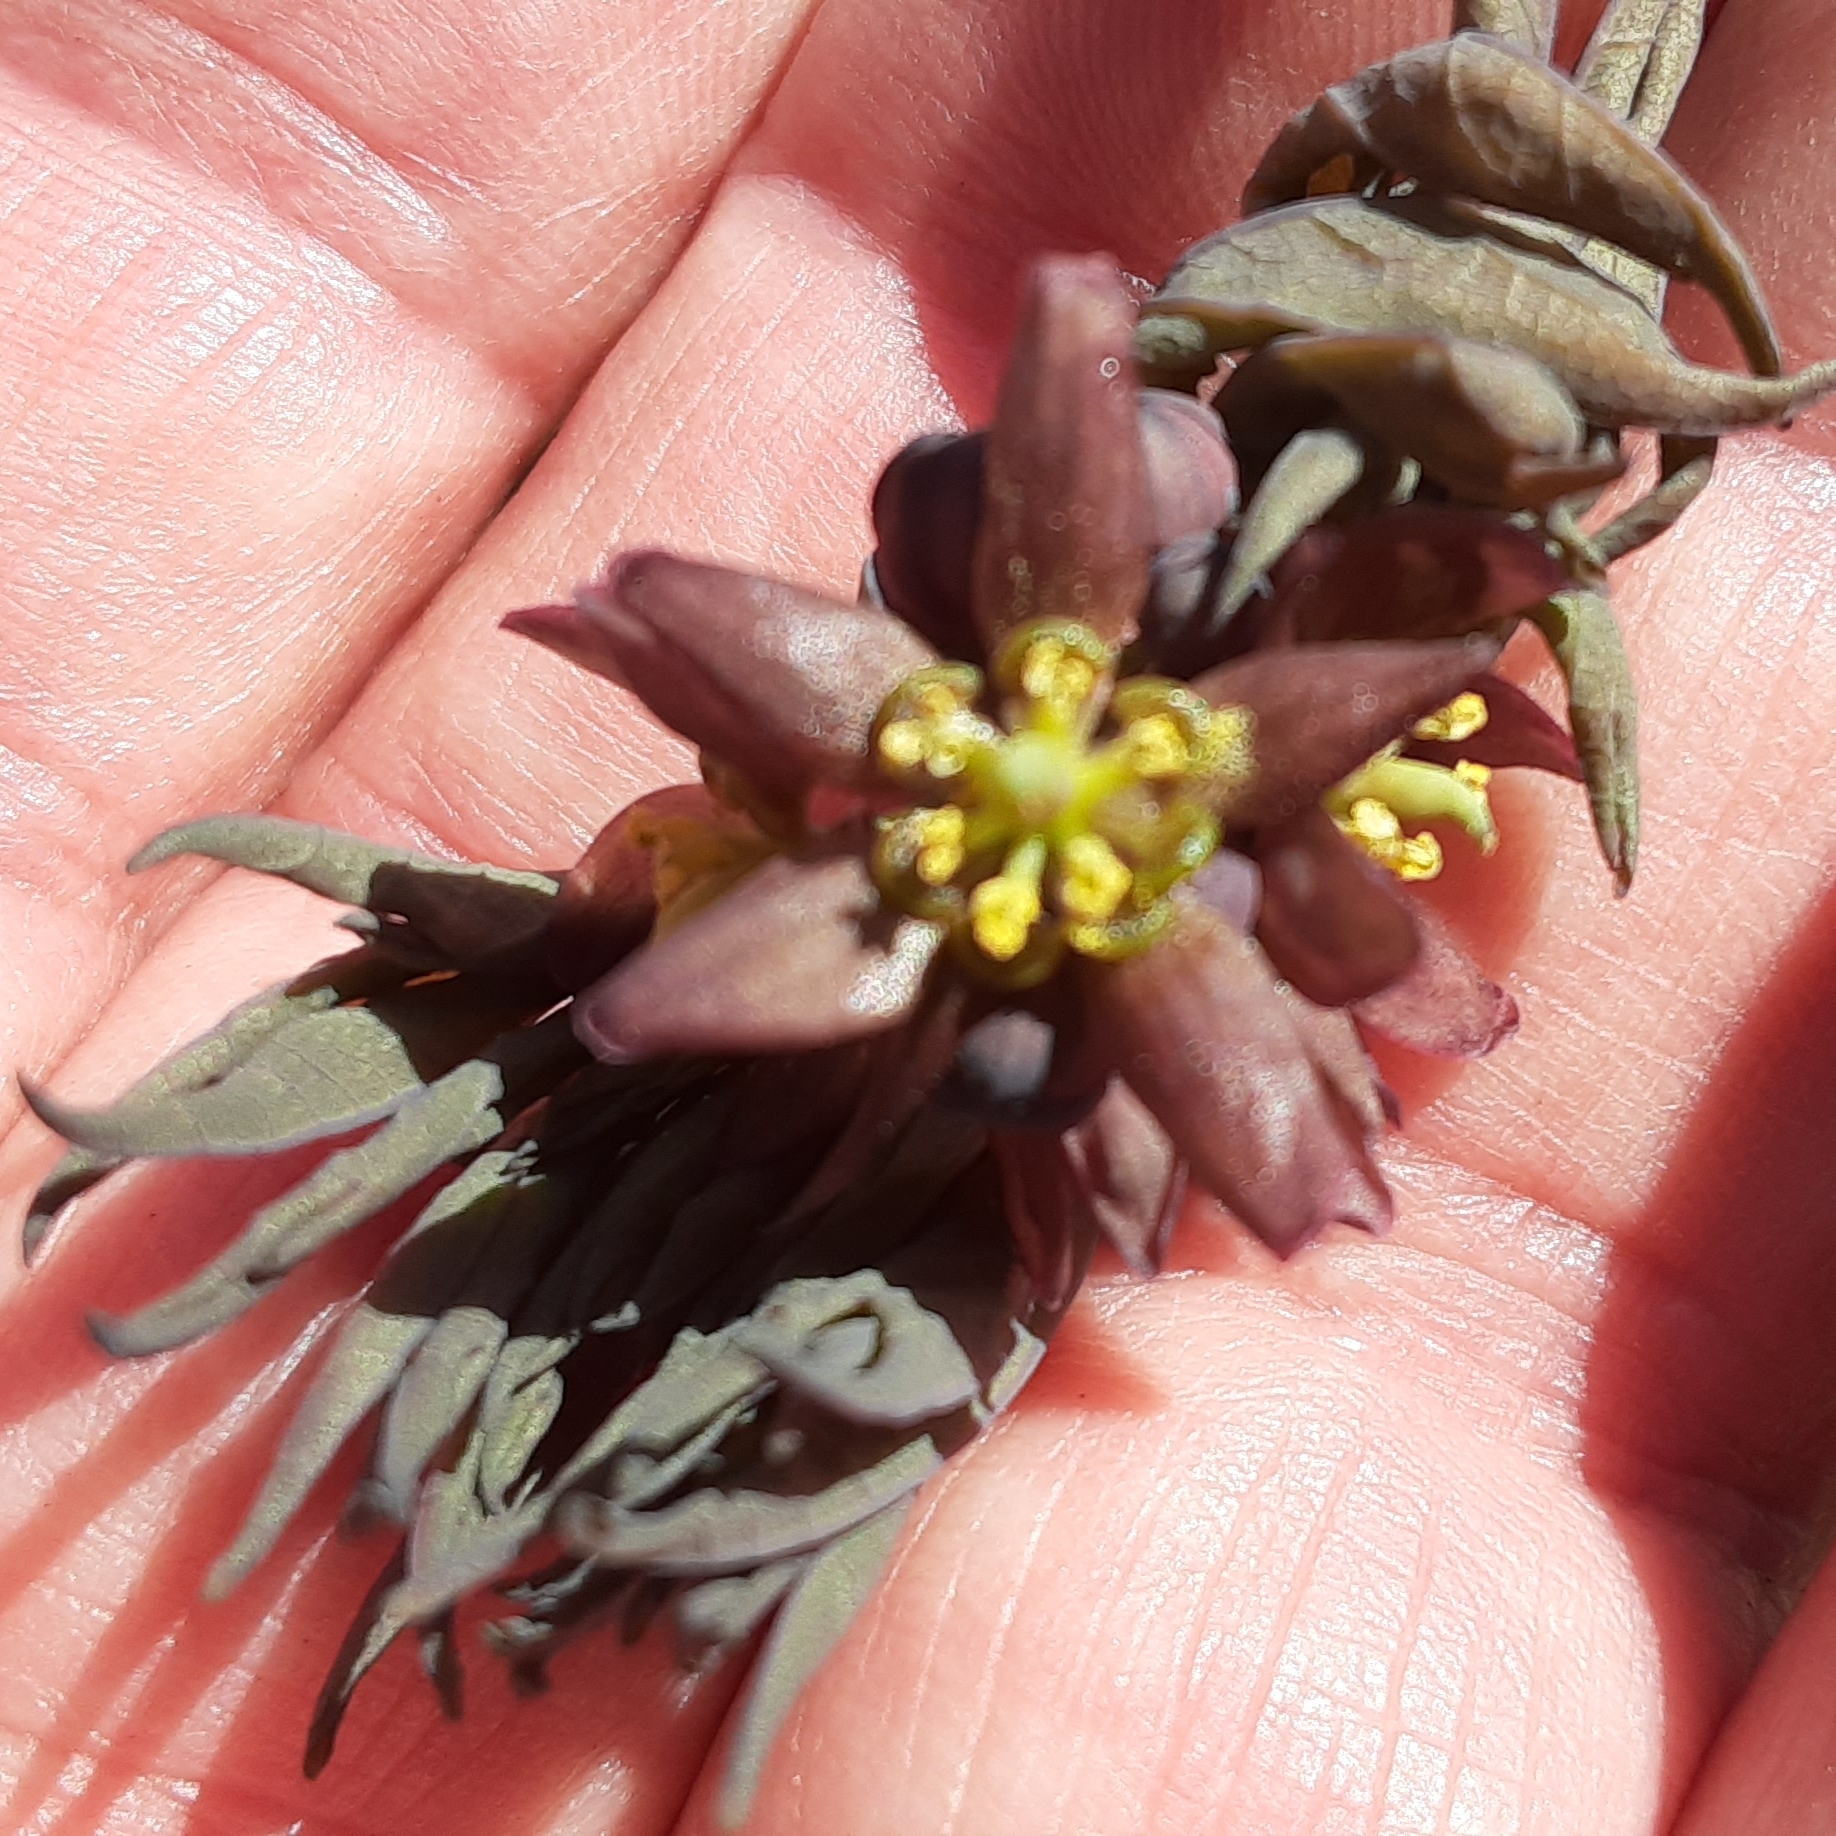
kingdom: Plantae
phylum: Tracheophyta
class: Magnoliopsida
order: Ranunculales
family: Berberidaceae
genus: Caulophyllum
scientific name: Caulophyllum giganteum
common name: Blue cohosh
